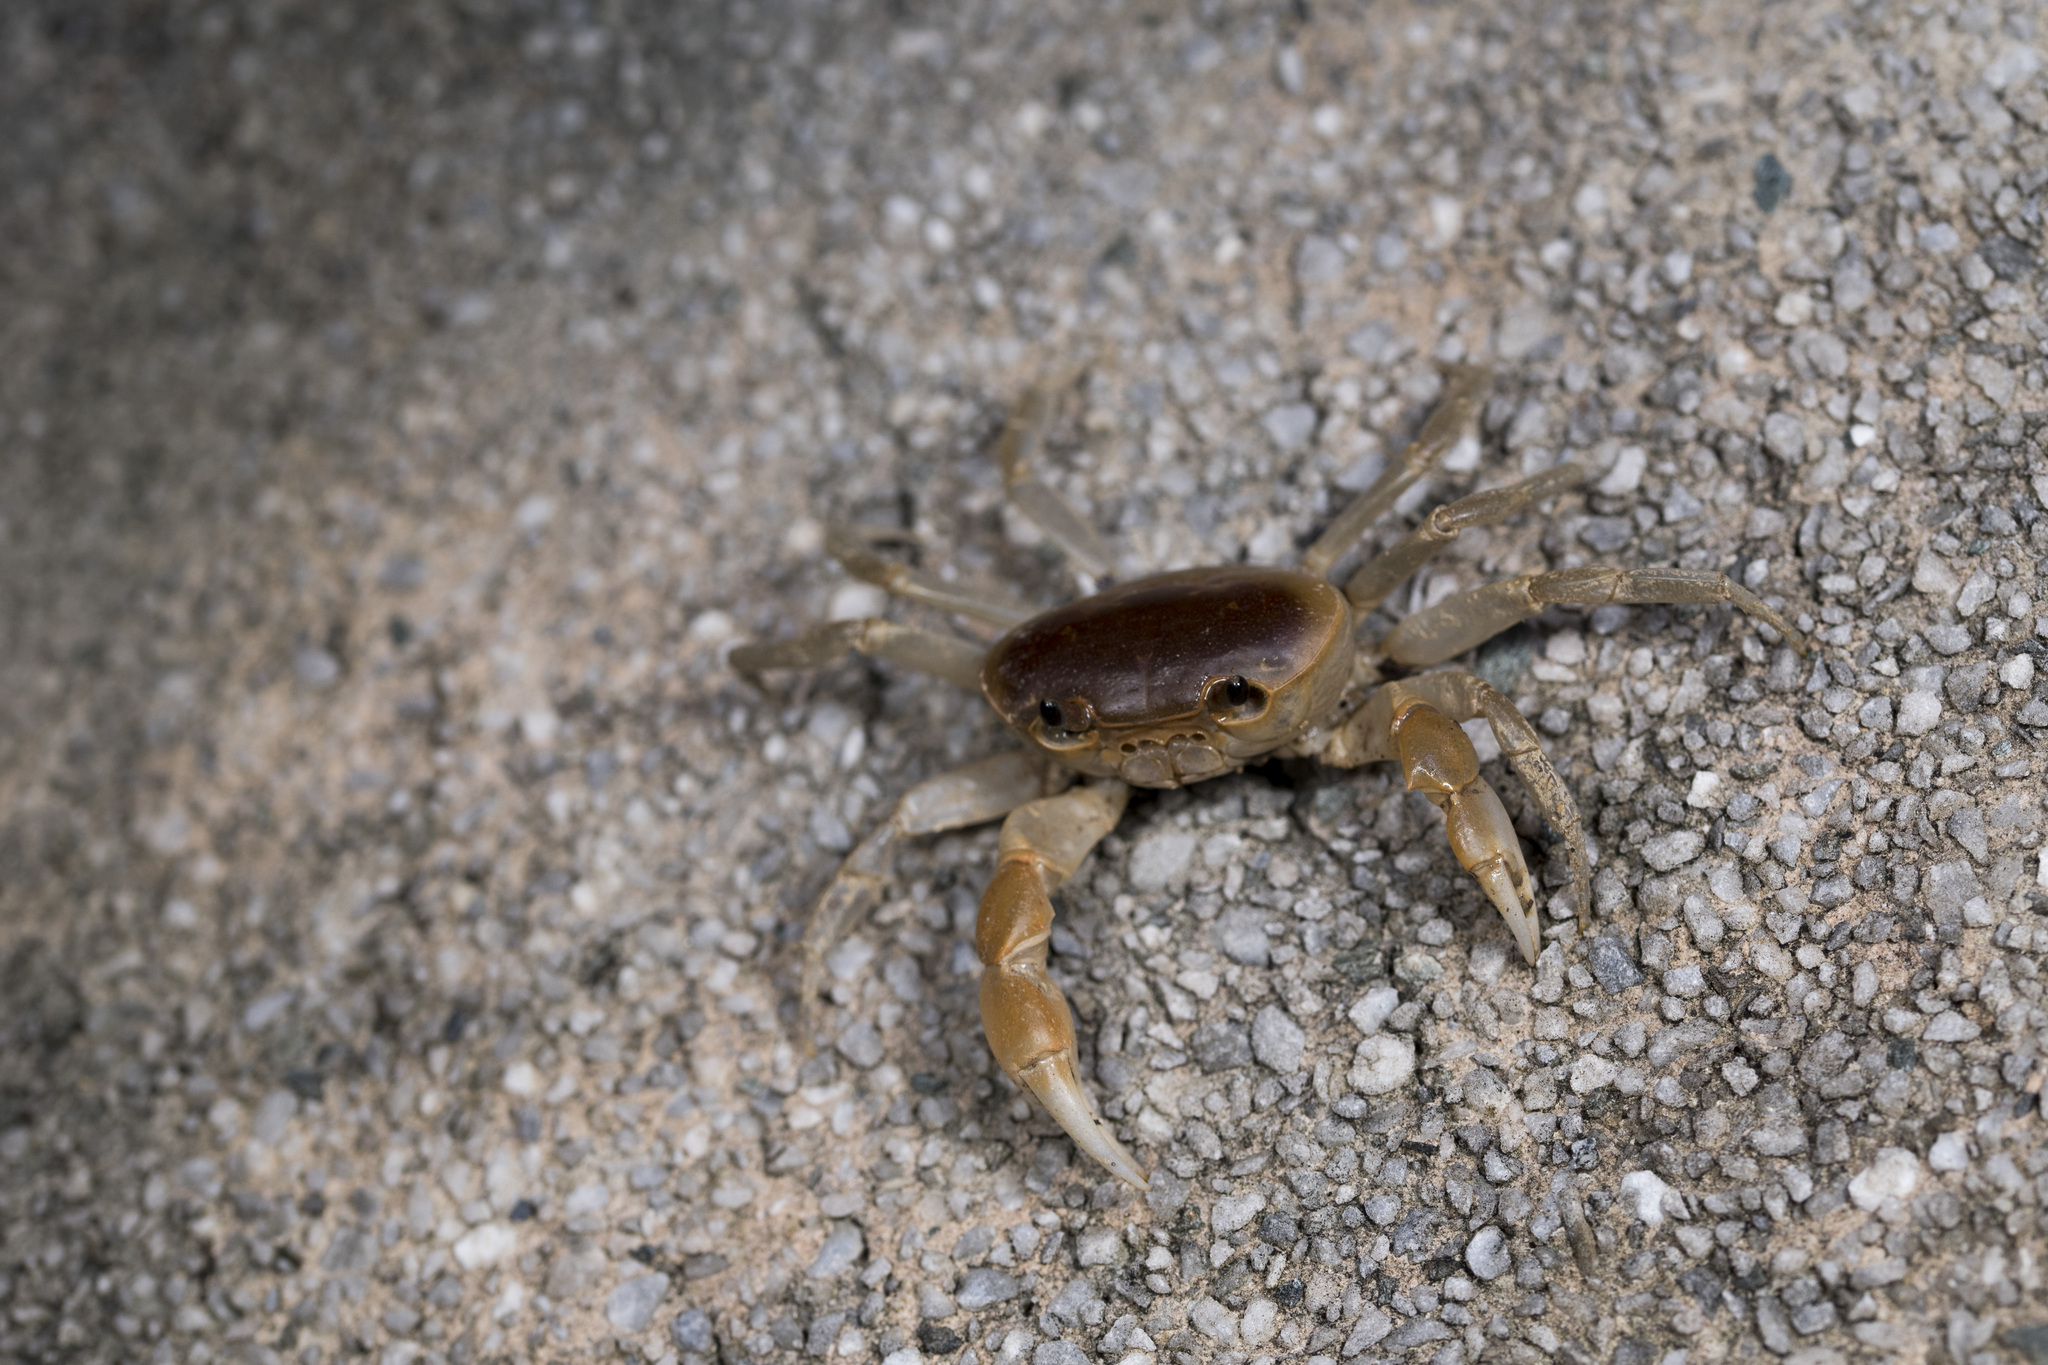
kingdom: Animalia
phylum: Arthropoda
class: Malacostraca
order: Decapoda
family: Potamidae
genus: Geothelphusa
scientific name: Geothelphusa makatao
